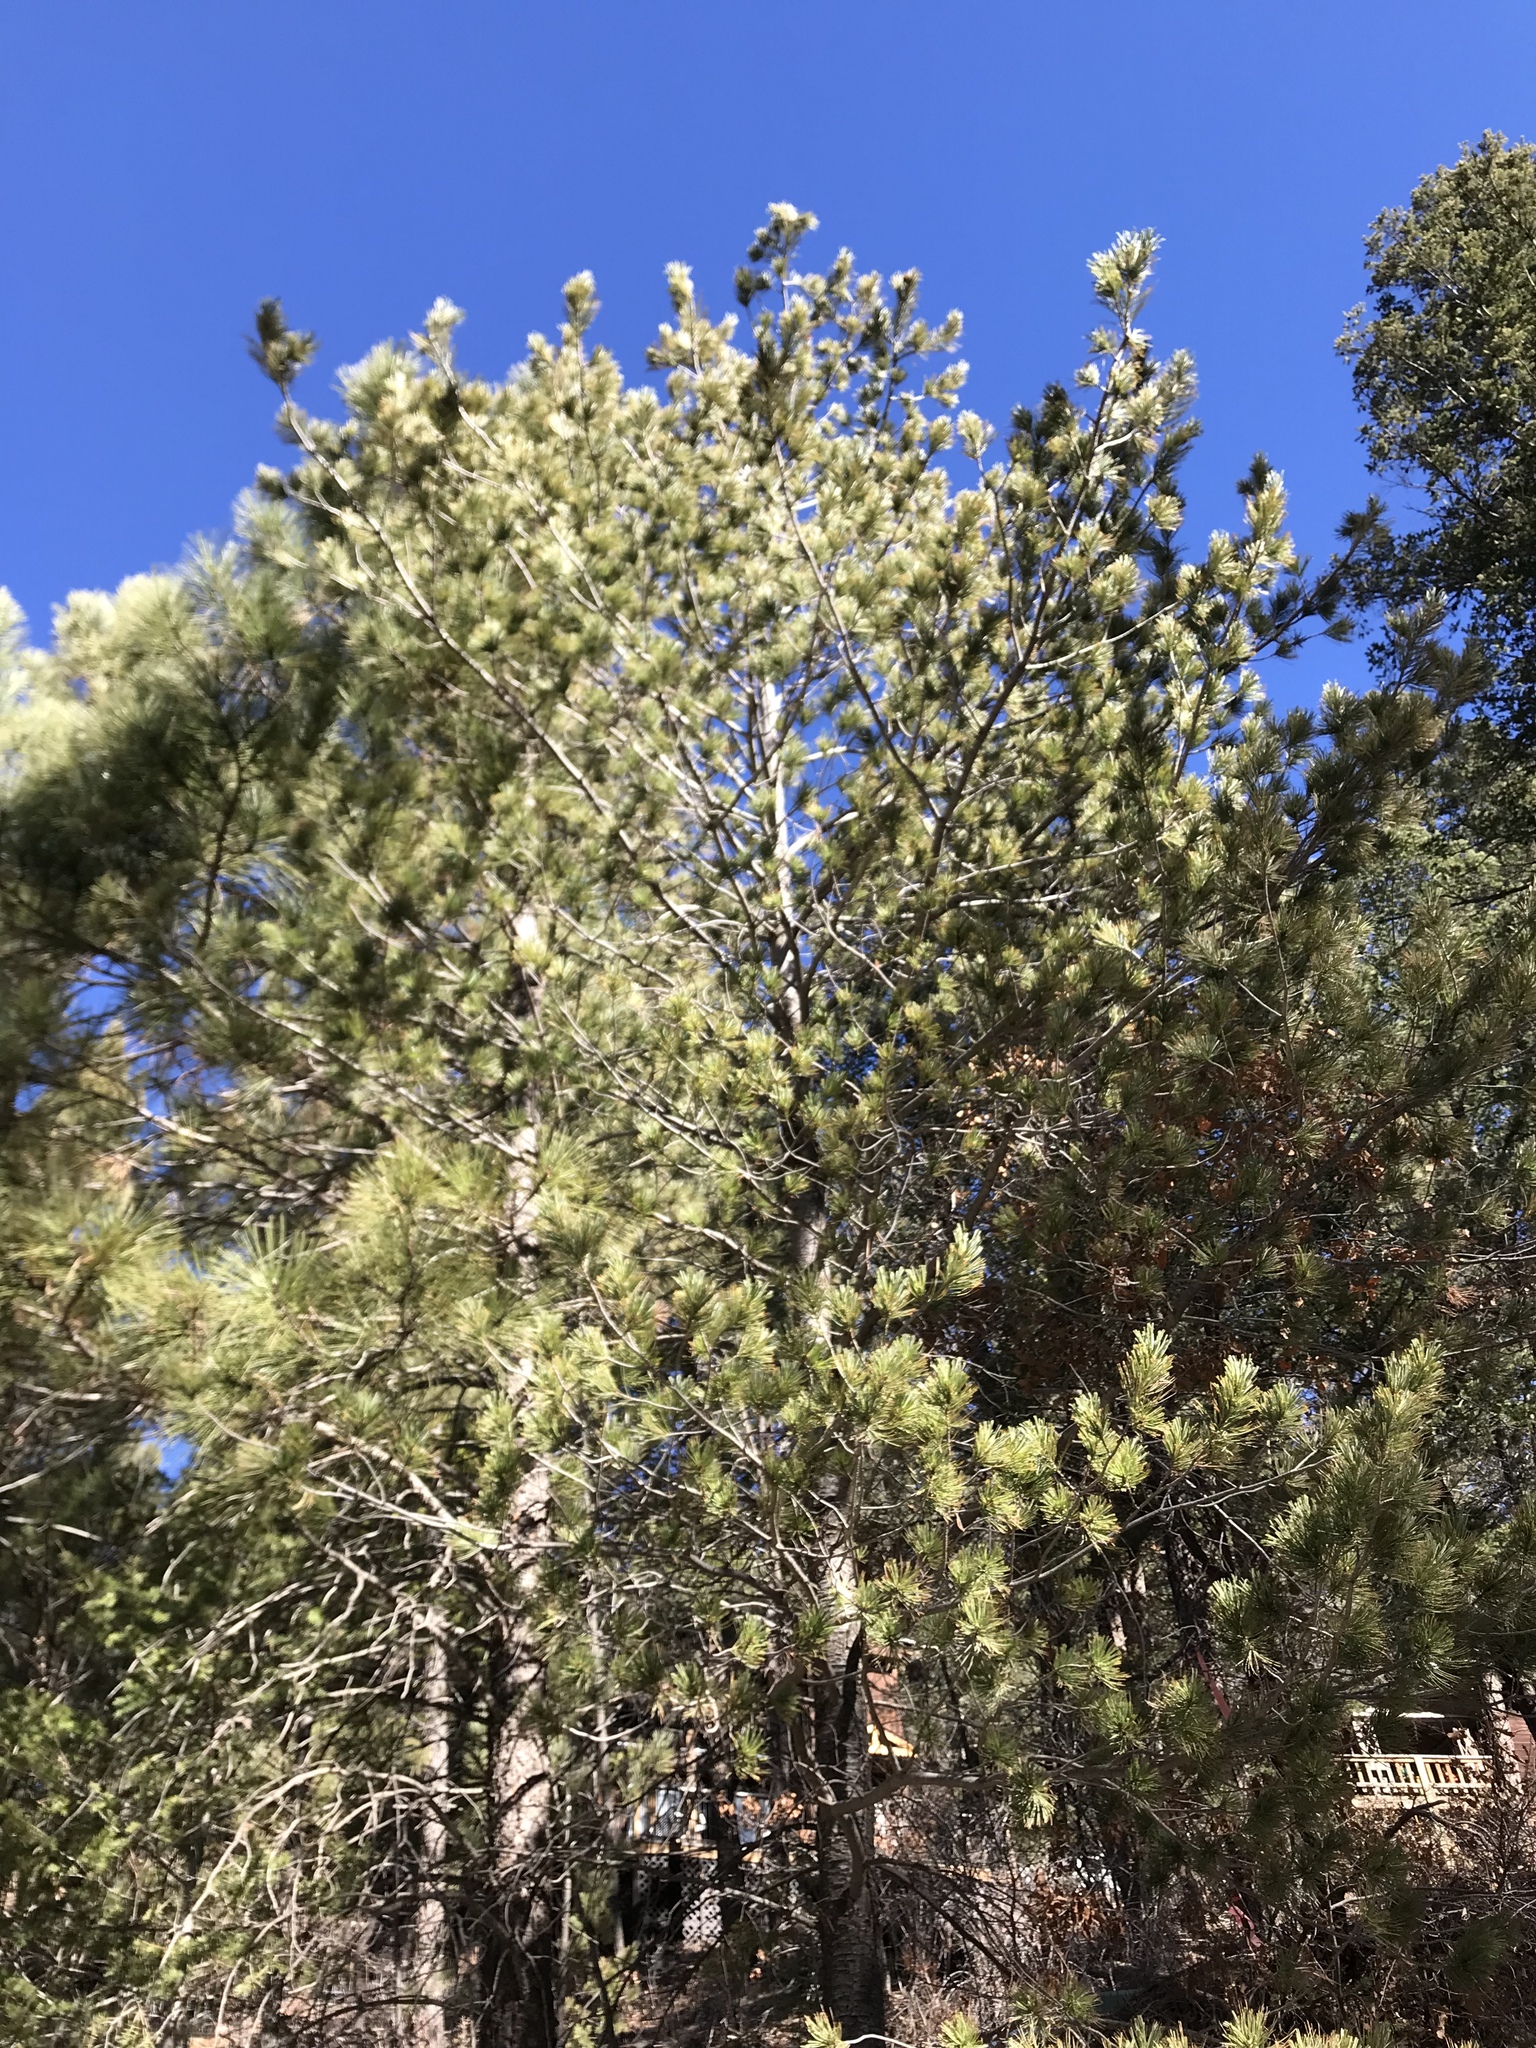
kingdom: Plantae
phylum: Tracheophyta
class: Pinopsida
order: Pinales
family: Pinaceae
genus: Pinus
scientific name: Pinus strobiformis
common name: Southwestern white pine
